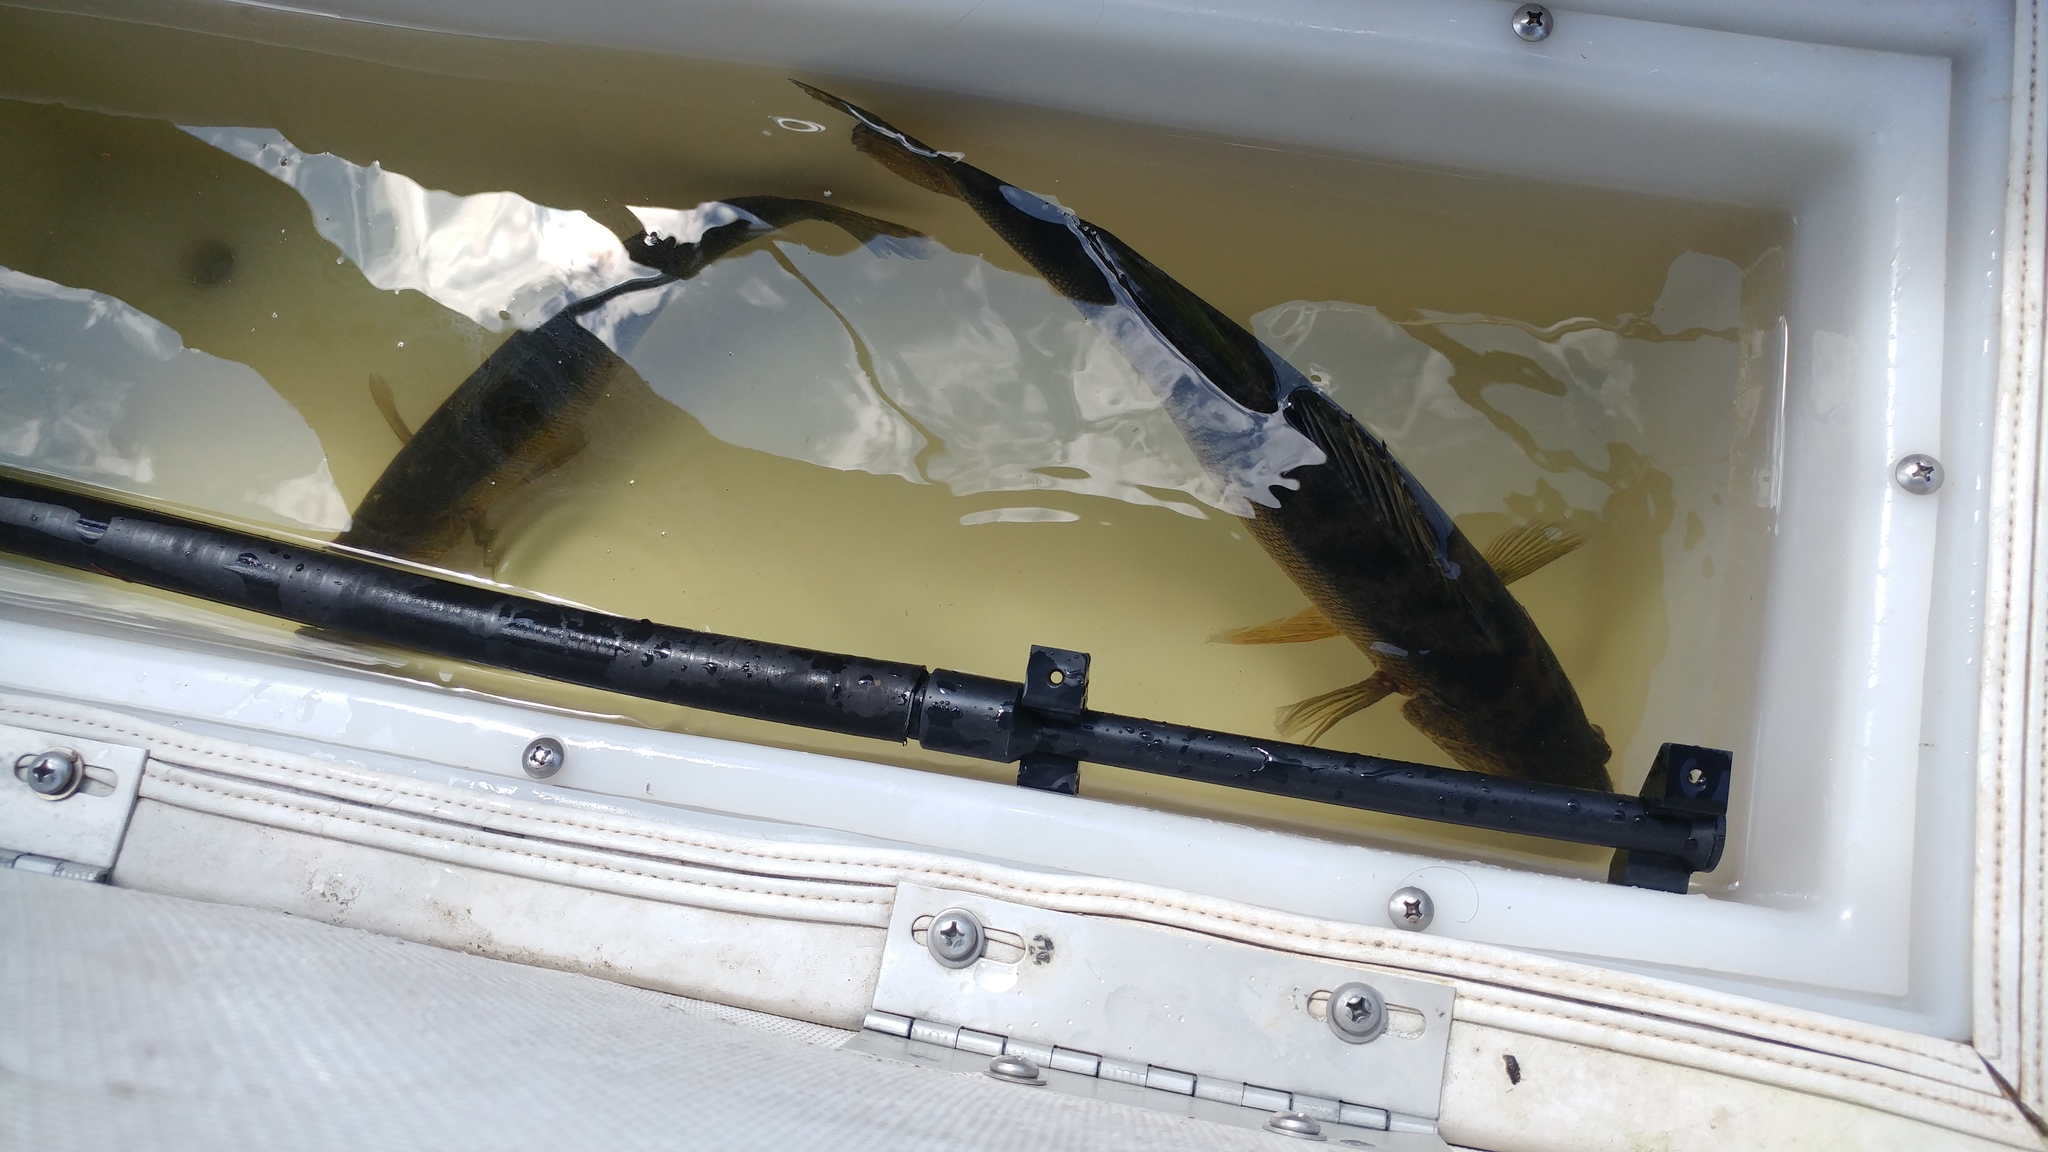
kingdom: Animalia
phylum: Chordata
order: Perciformes
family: Percidae
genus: Sander
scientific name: Sander vitreus
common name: Walleye
